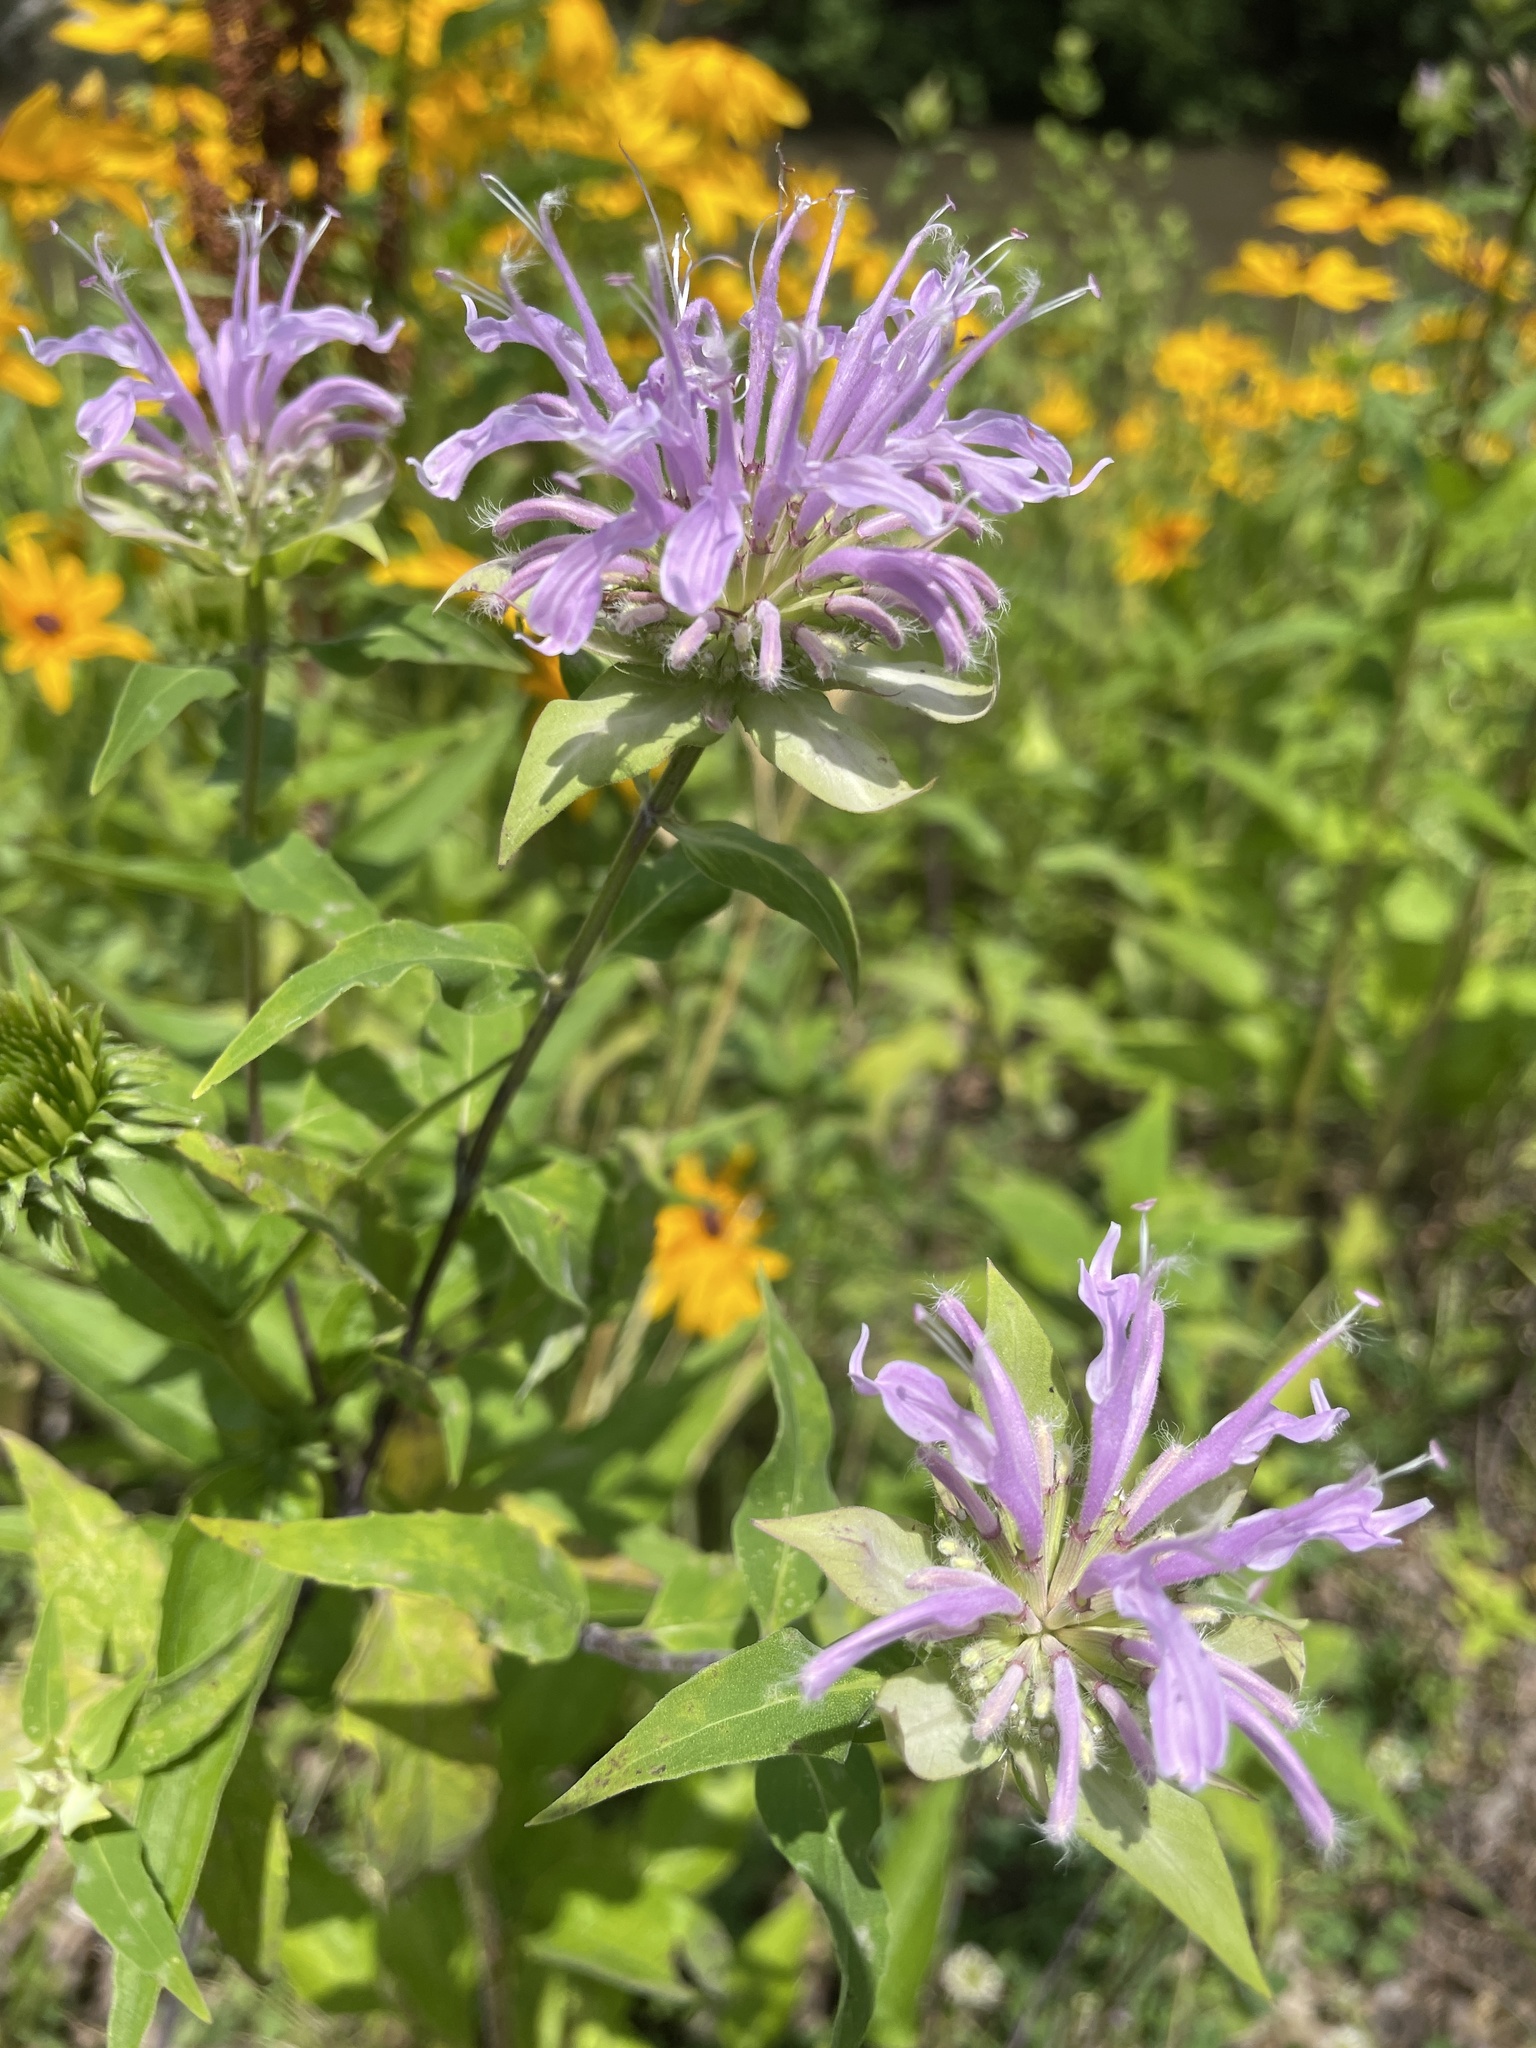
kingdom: Plantae
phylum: Tracheophyta
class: Magnoliopsida
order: Lamiales
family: Lamiaceae
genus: Monarda
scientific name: Monarda fistulosa
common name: Purple beebalm
